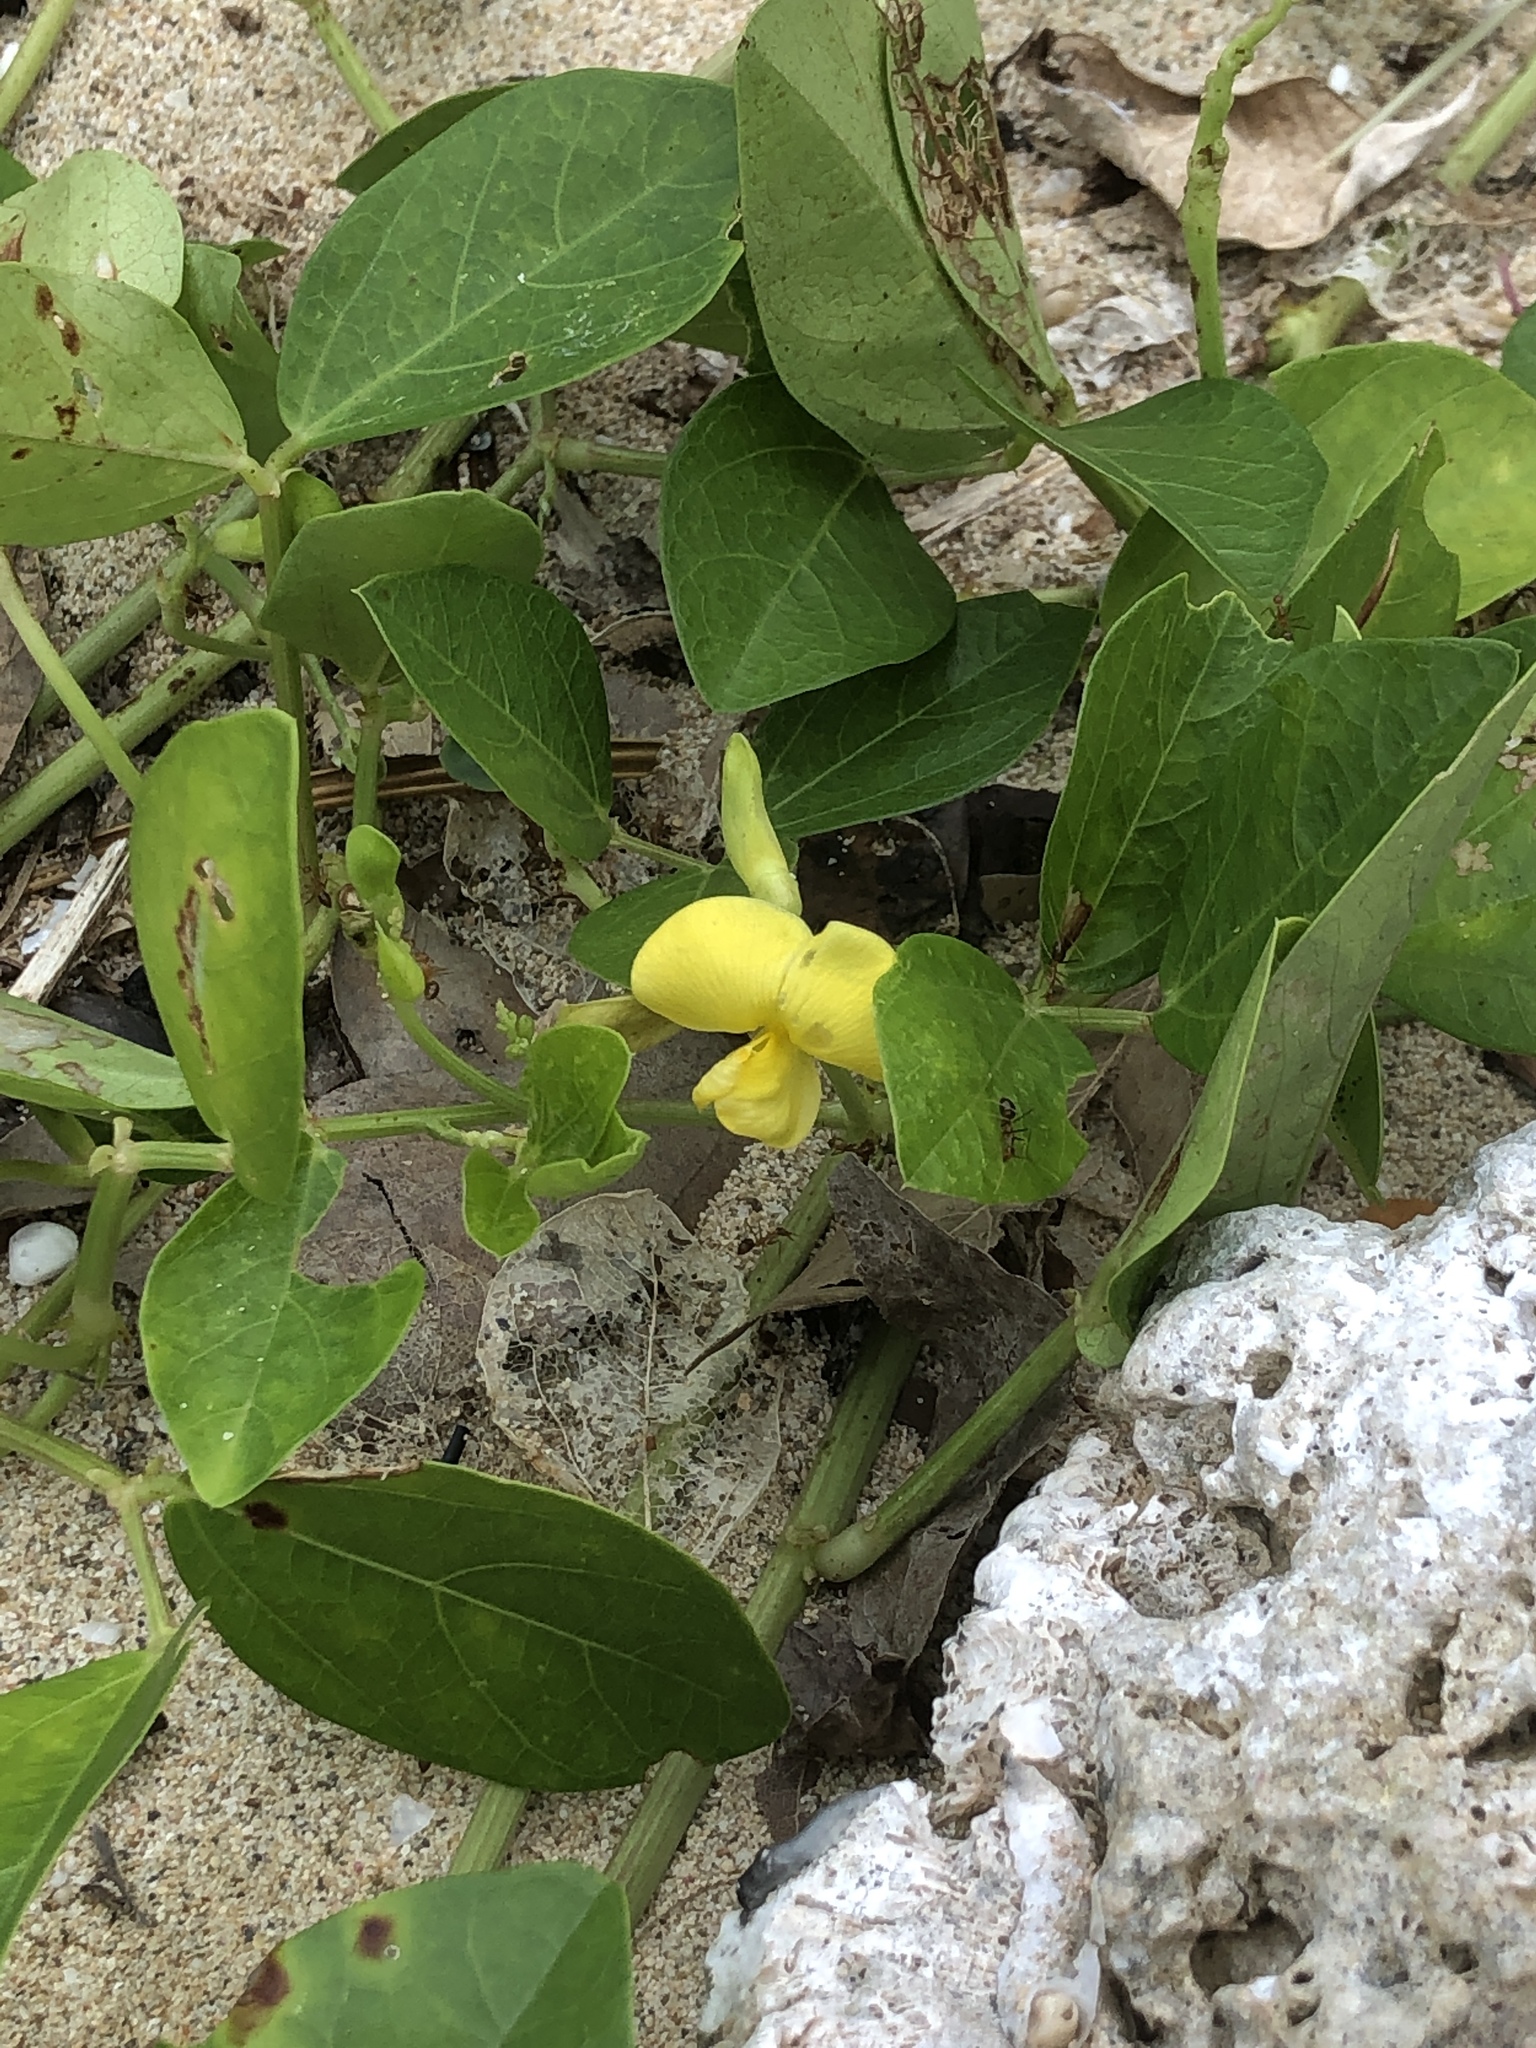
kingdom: Plantae
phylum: Tracheophyta
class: Magnoliopsida
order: Fabales
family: Fabaceae
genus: Vigna
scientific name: Vigna marina
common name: Dune-bean
